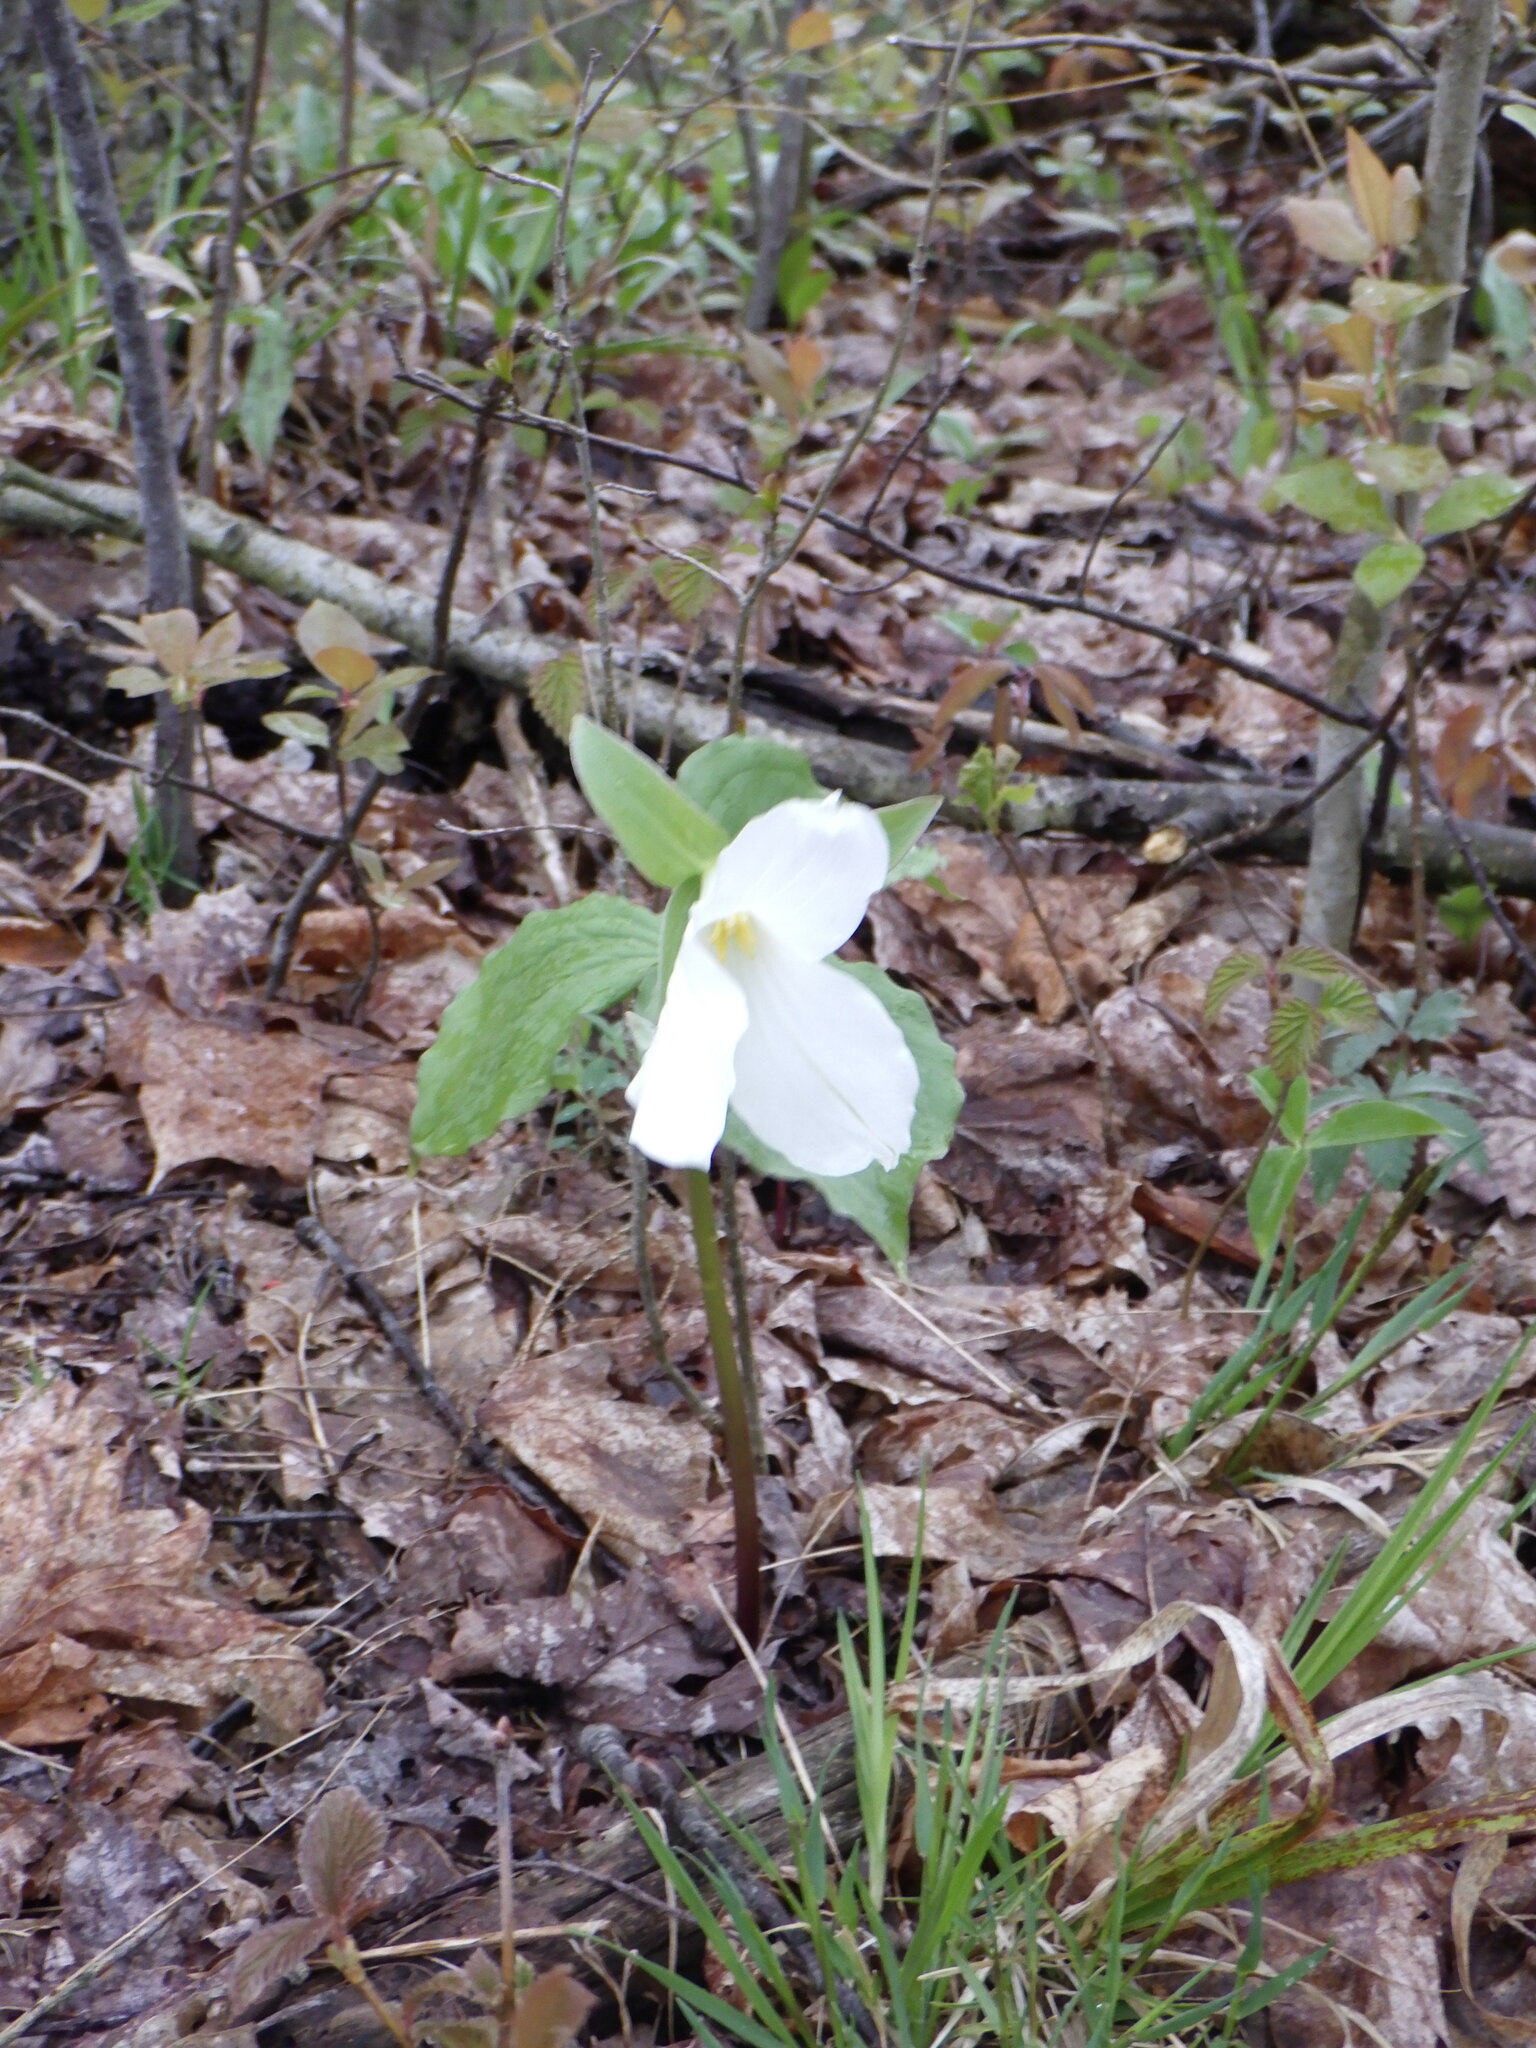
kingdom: Plantae
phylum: Tracheophyta
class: Liliopsida
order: Liliales
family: Melanthiaceae
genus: Trillium
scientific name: Trillium grandiflorum
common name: Great white trillium
